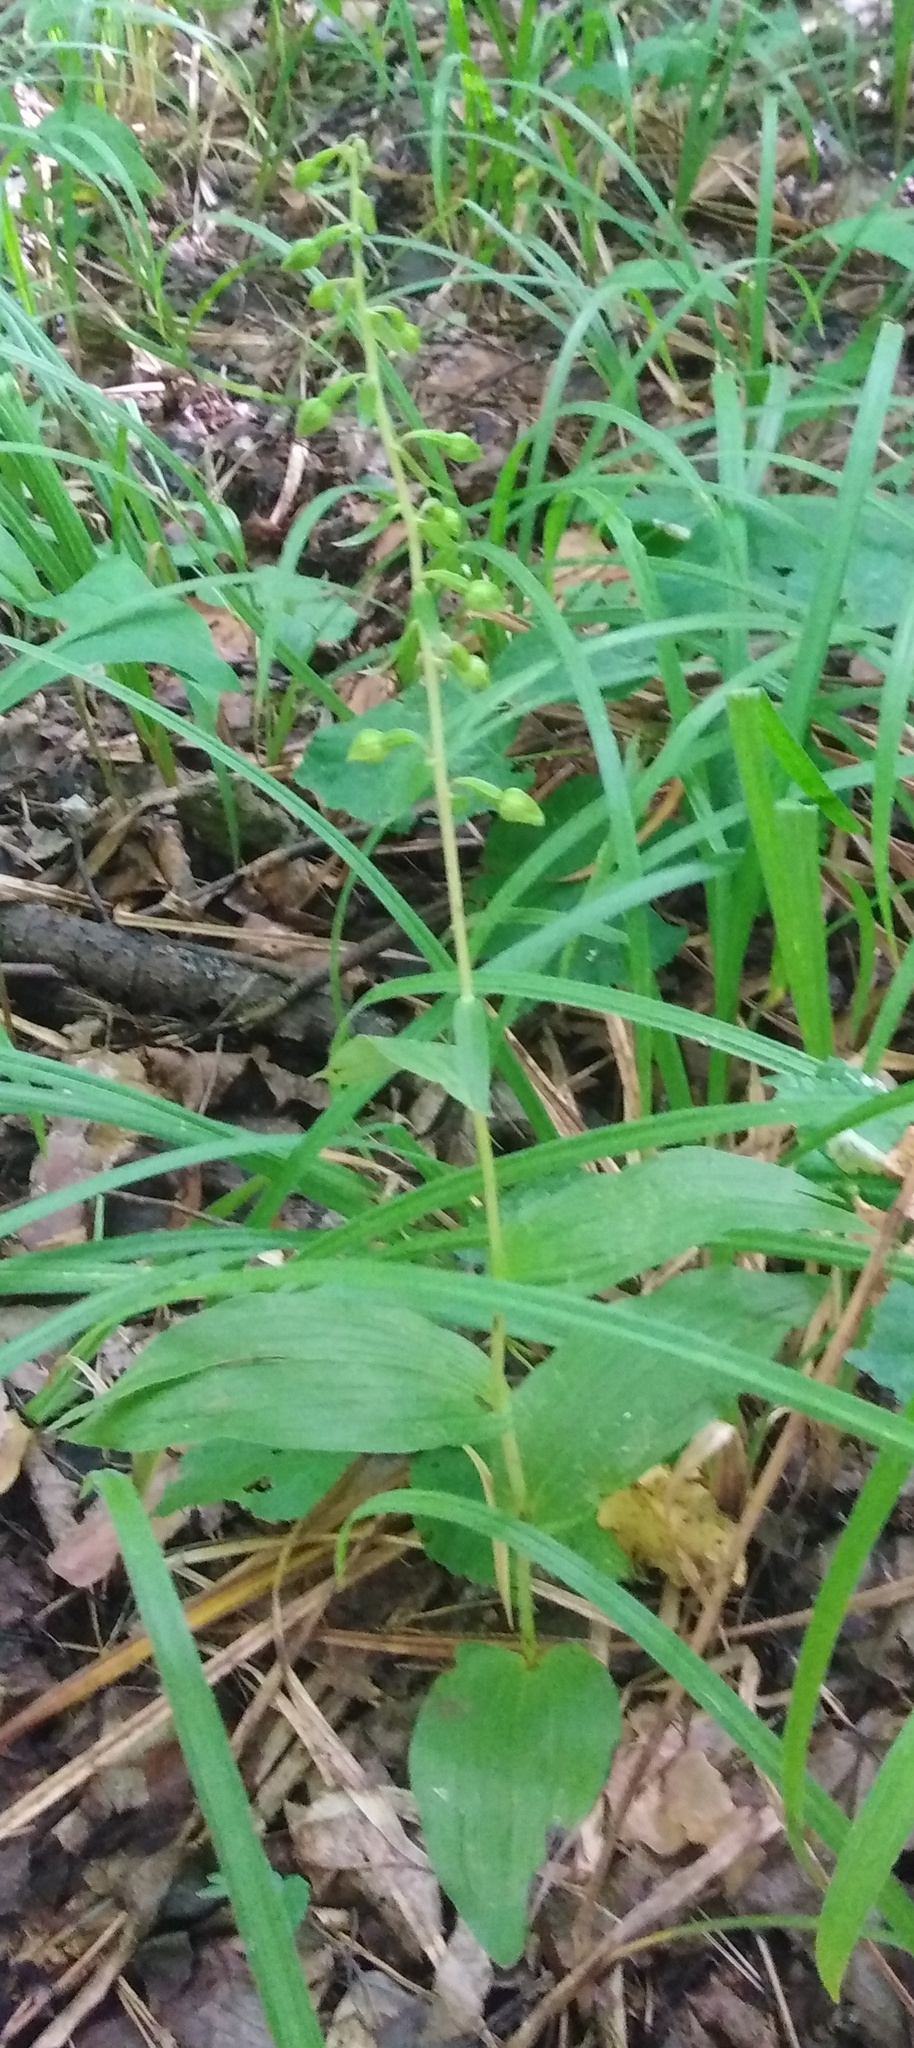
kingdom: Plantae
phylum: Tracheophyta
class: Liliopsida
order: Asparagales
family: Orchidaceae
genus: Epipactis
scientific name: Epipactis helleborine
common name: Broad-leaved helleborine
